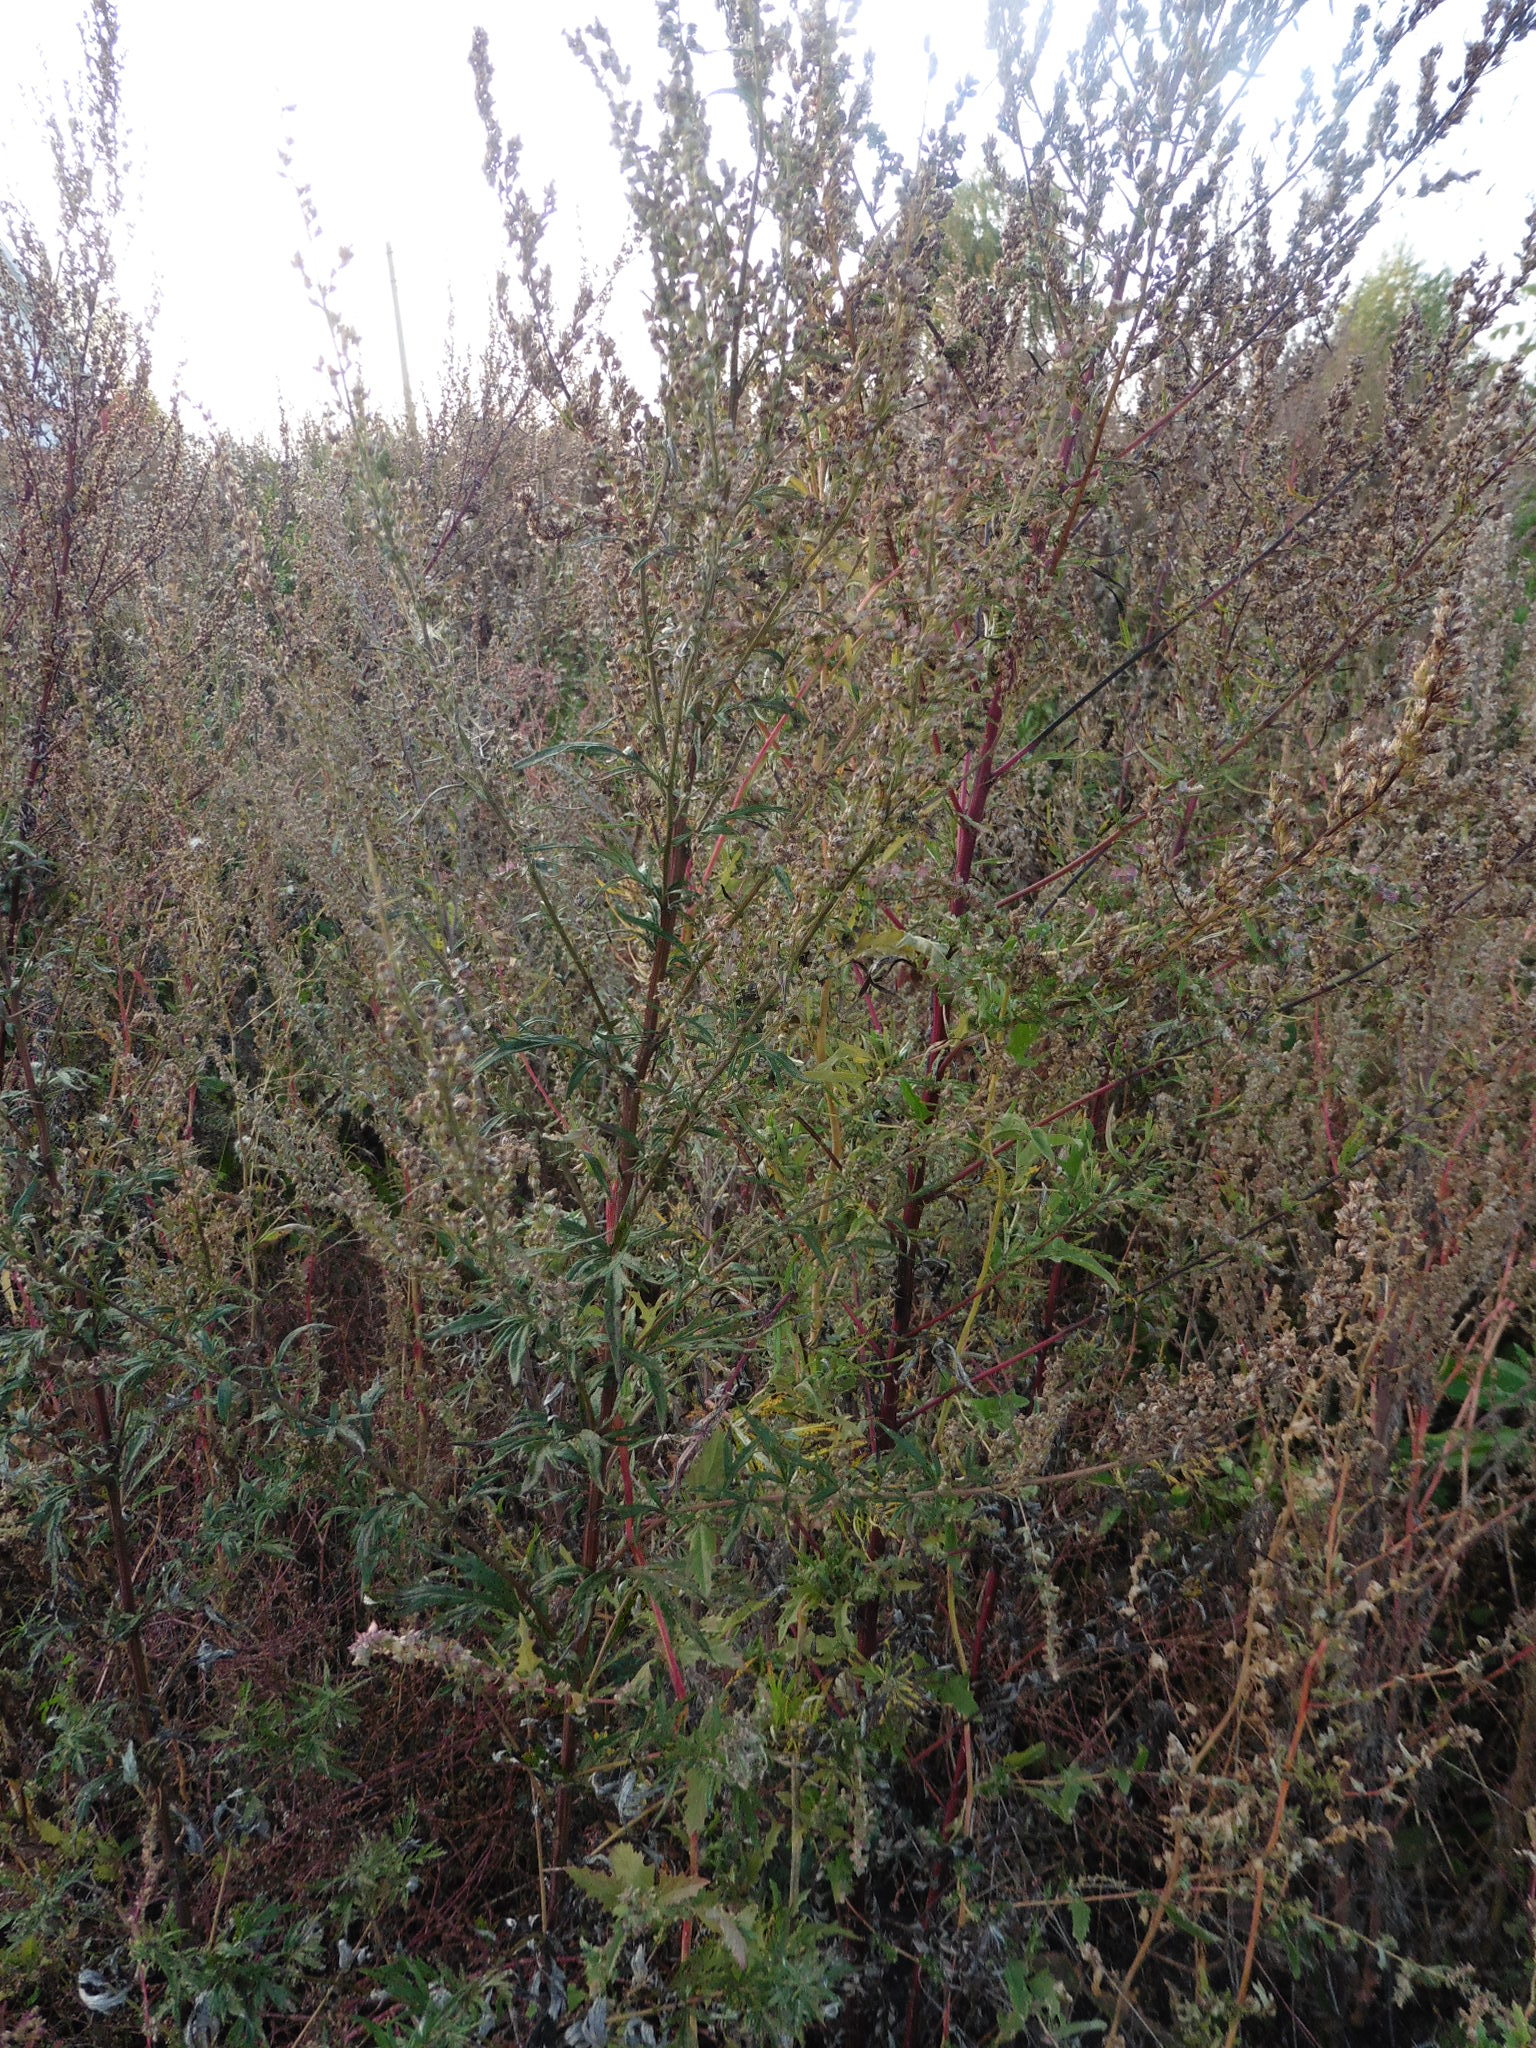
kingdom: Plantae
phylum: Tracheophyta
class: Magnoliopsida
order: Asterales
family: Asteraceae
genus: Artemisia
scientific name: Artemisia vulgaris
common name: Mugwort
